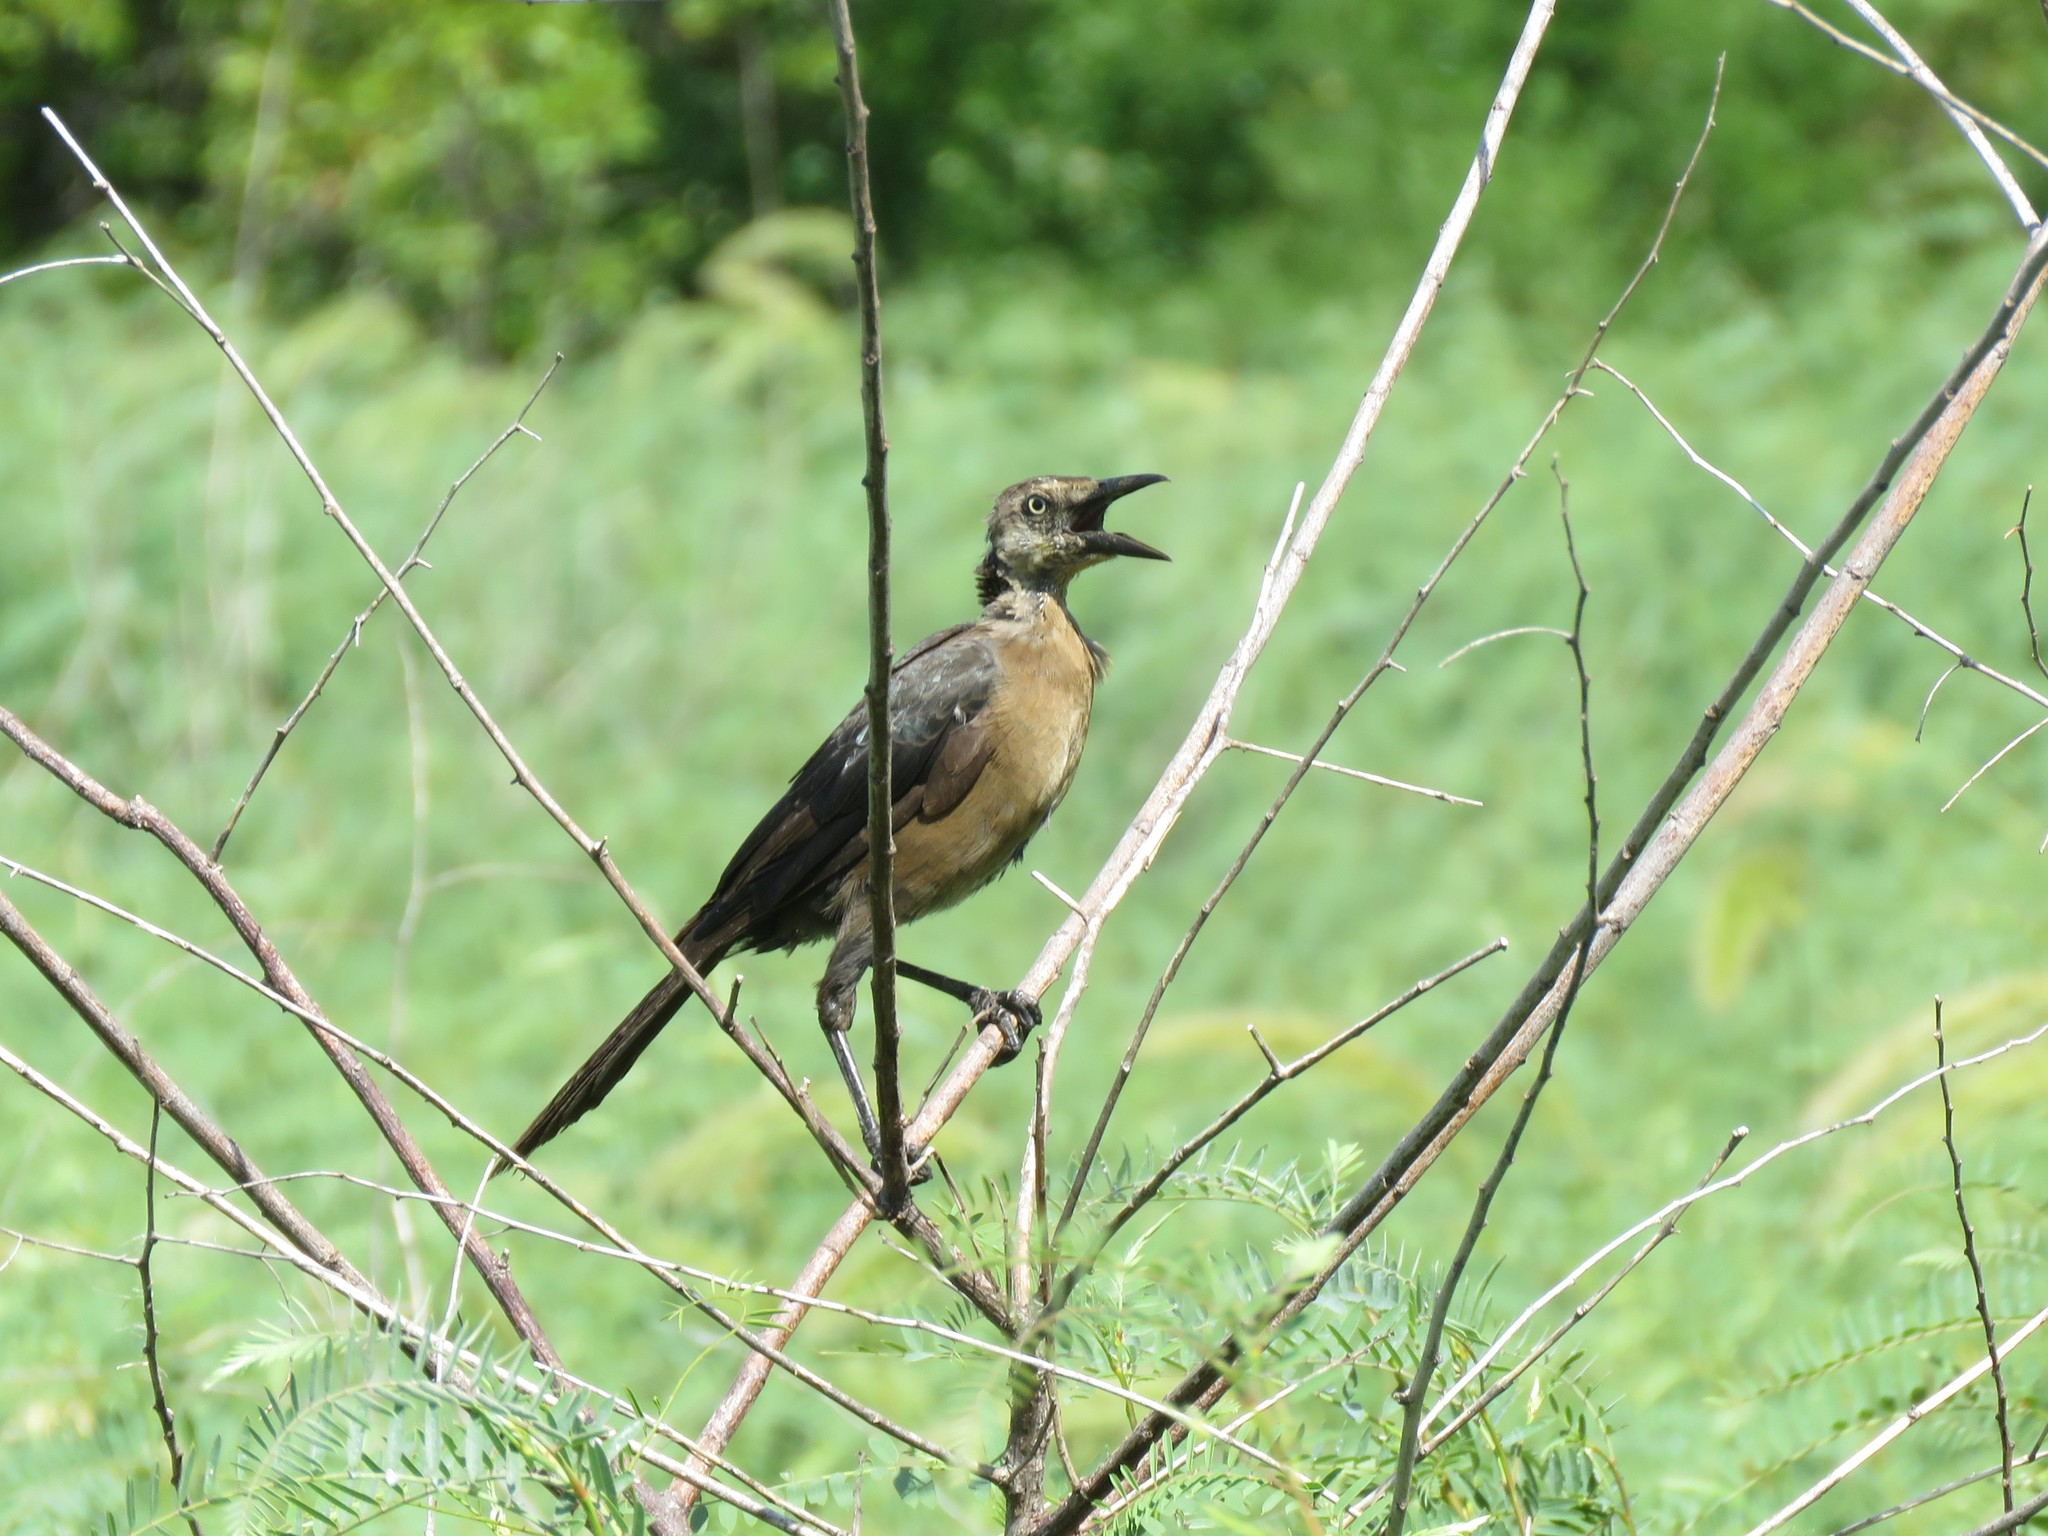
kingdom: Animalia
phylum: Chordata
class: Aves
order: Passeriformes
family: Icteridae
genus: Quiscalus
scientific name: Quiscalus mexicanus
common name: Great-tailed grackle
